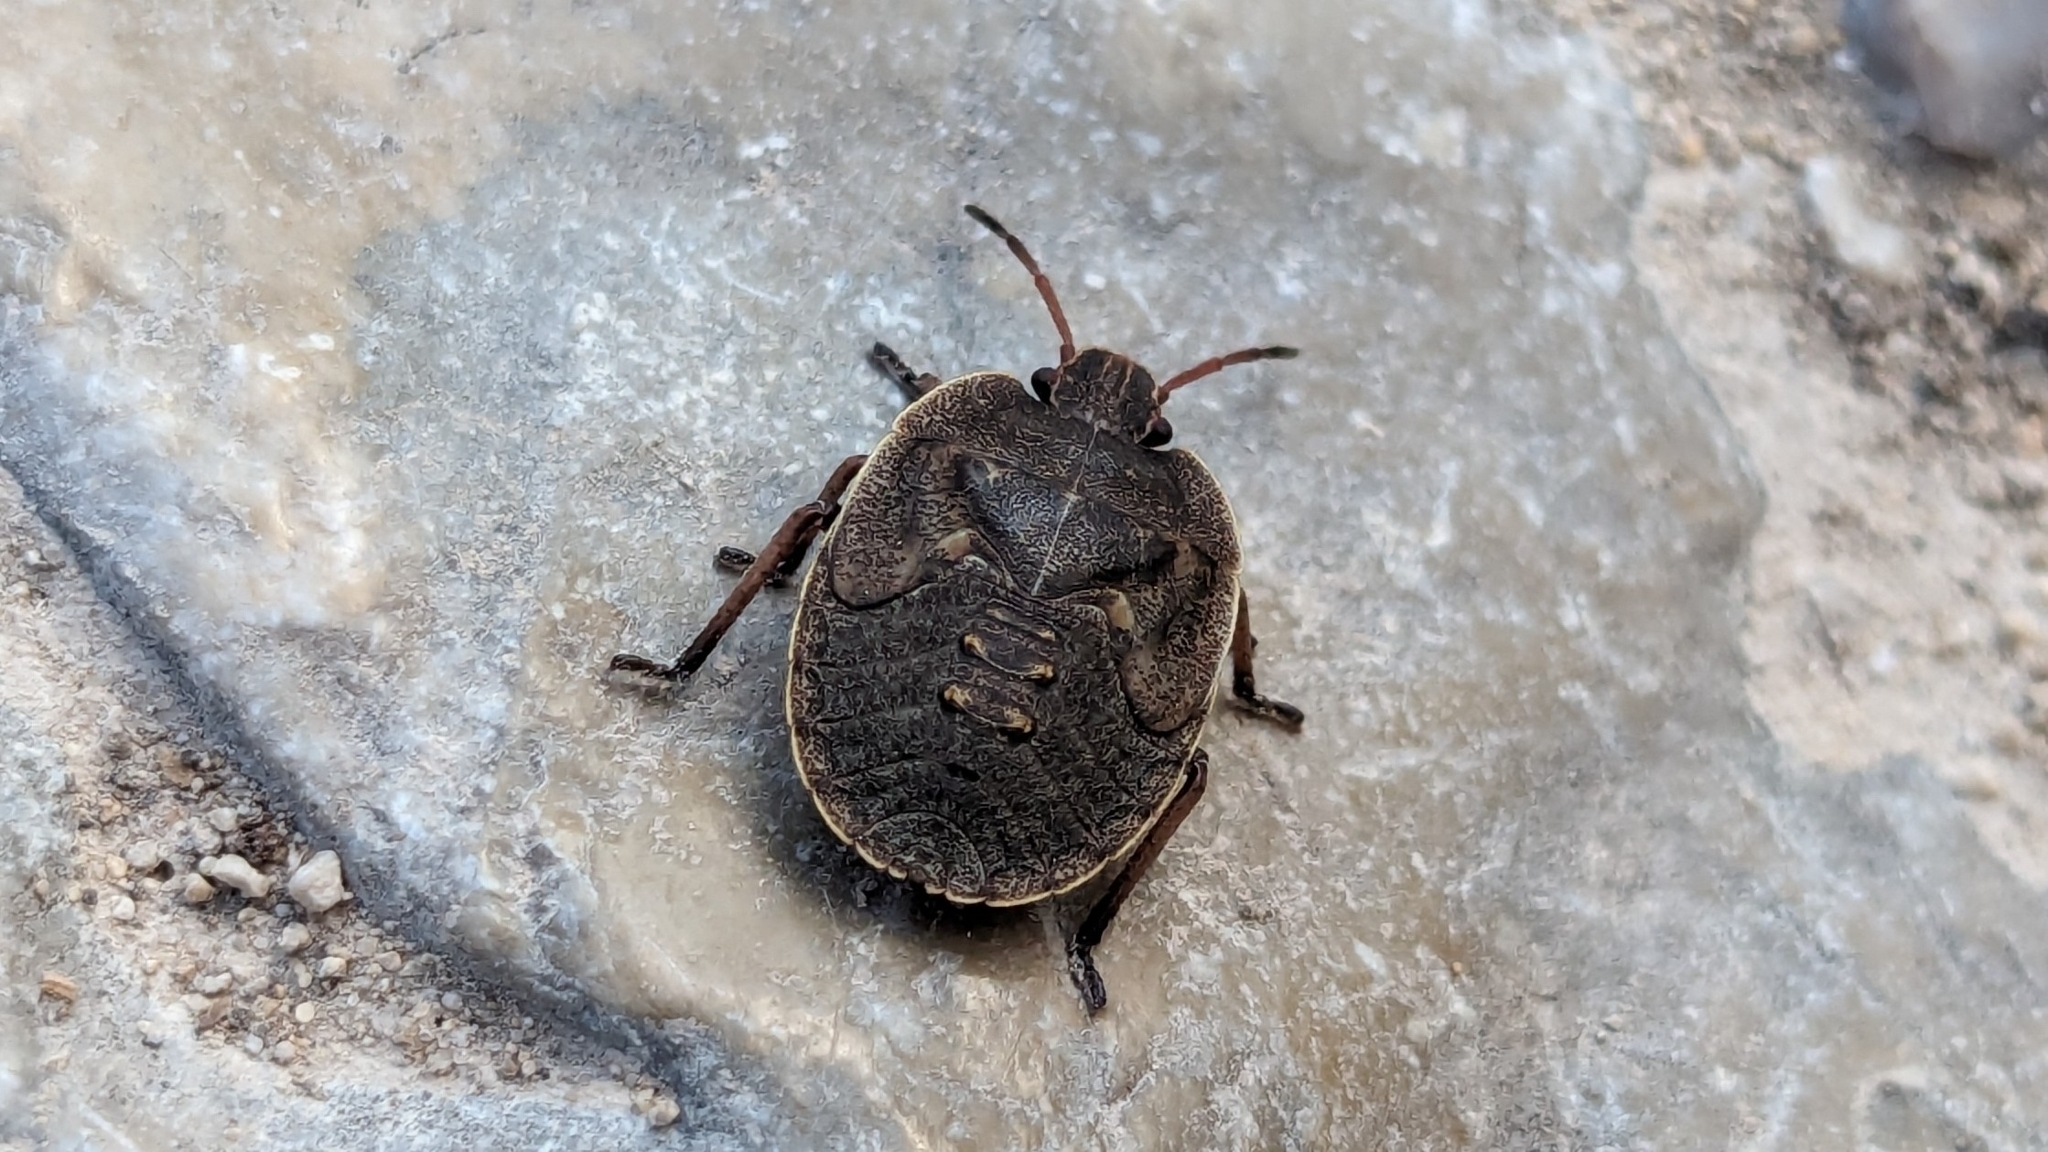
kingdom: Animalia
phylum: Arthropoda
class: Insecta
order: Hemiptera
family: Pentatomidae
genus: Menecles
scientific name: Menecles insertus
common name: Elf shoe stink bug
